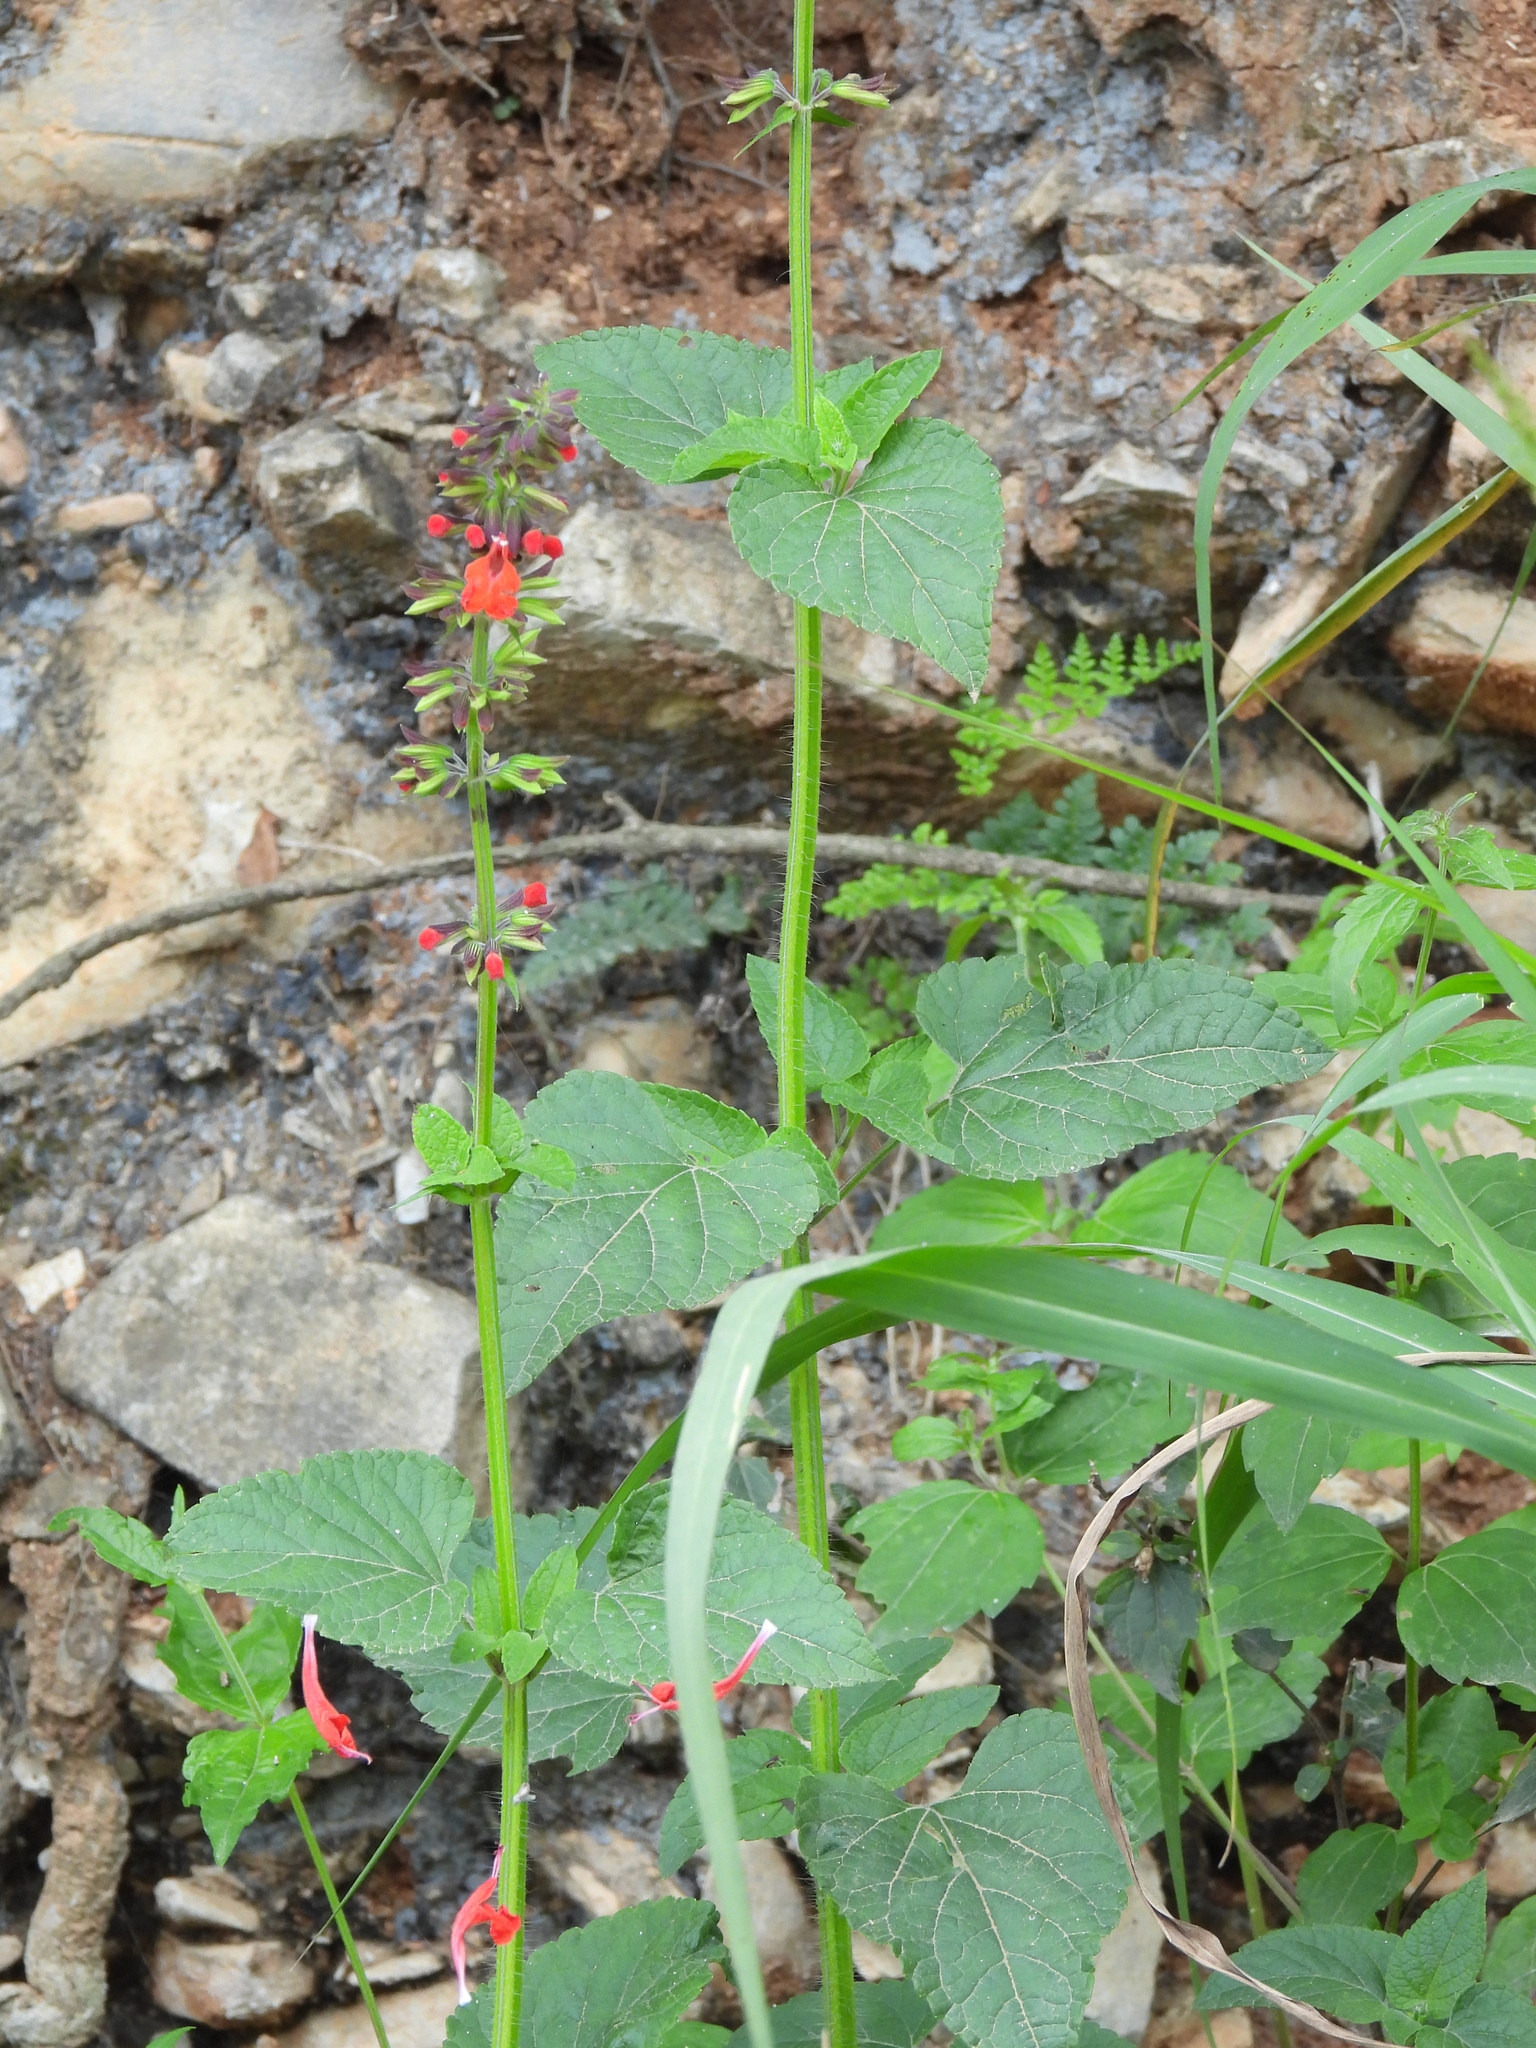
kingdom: Plantae
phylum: Tracheophyta
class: Magnoliopsida
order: Lamiales
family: Lamiaceae
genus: Salvia
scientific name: Salvia coccinea
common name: Blood sage
